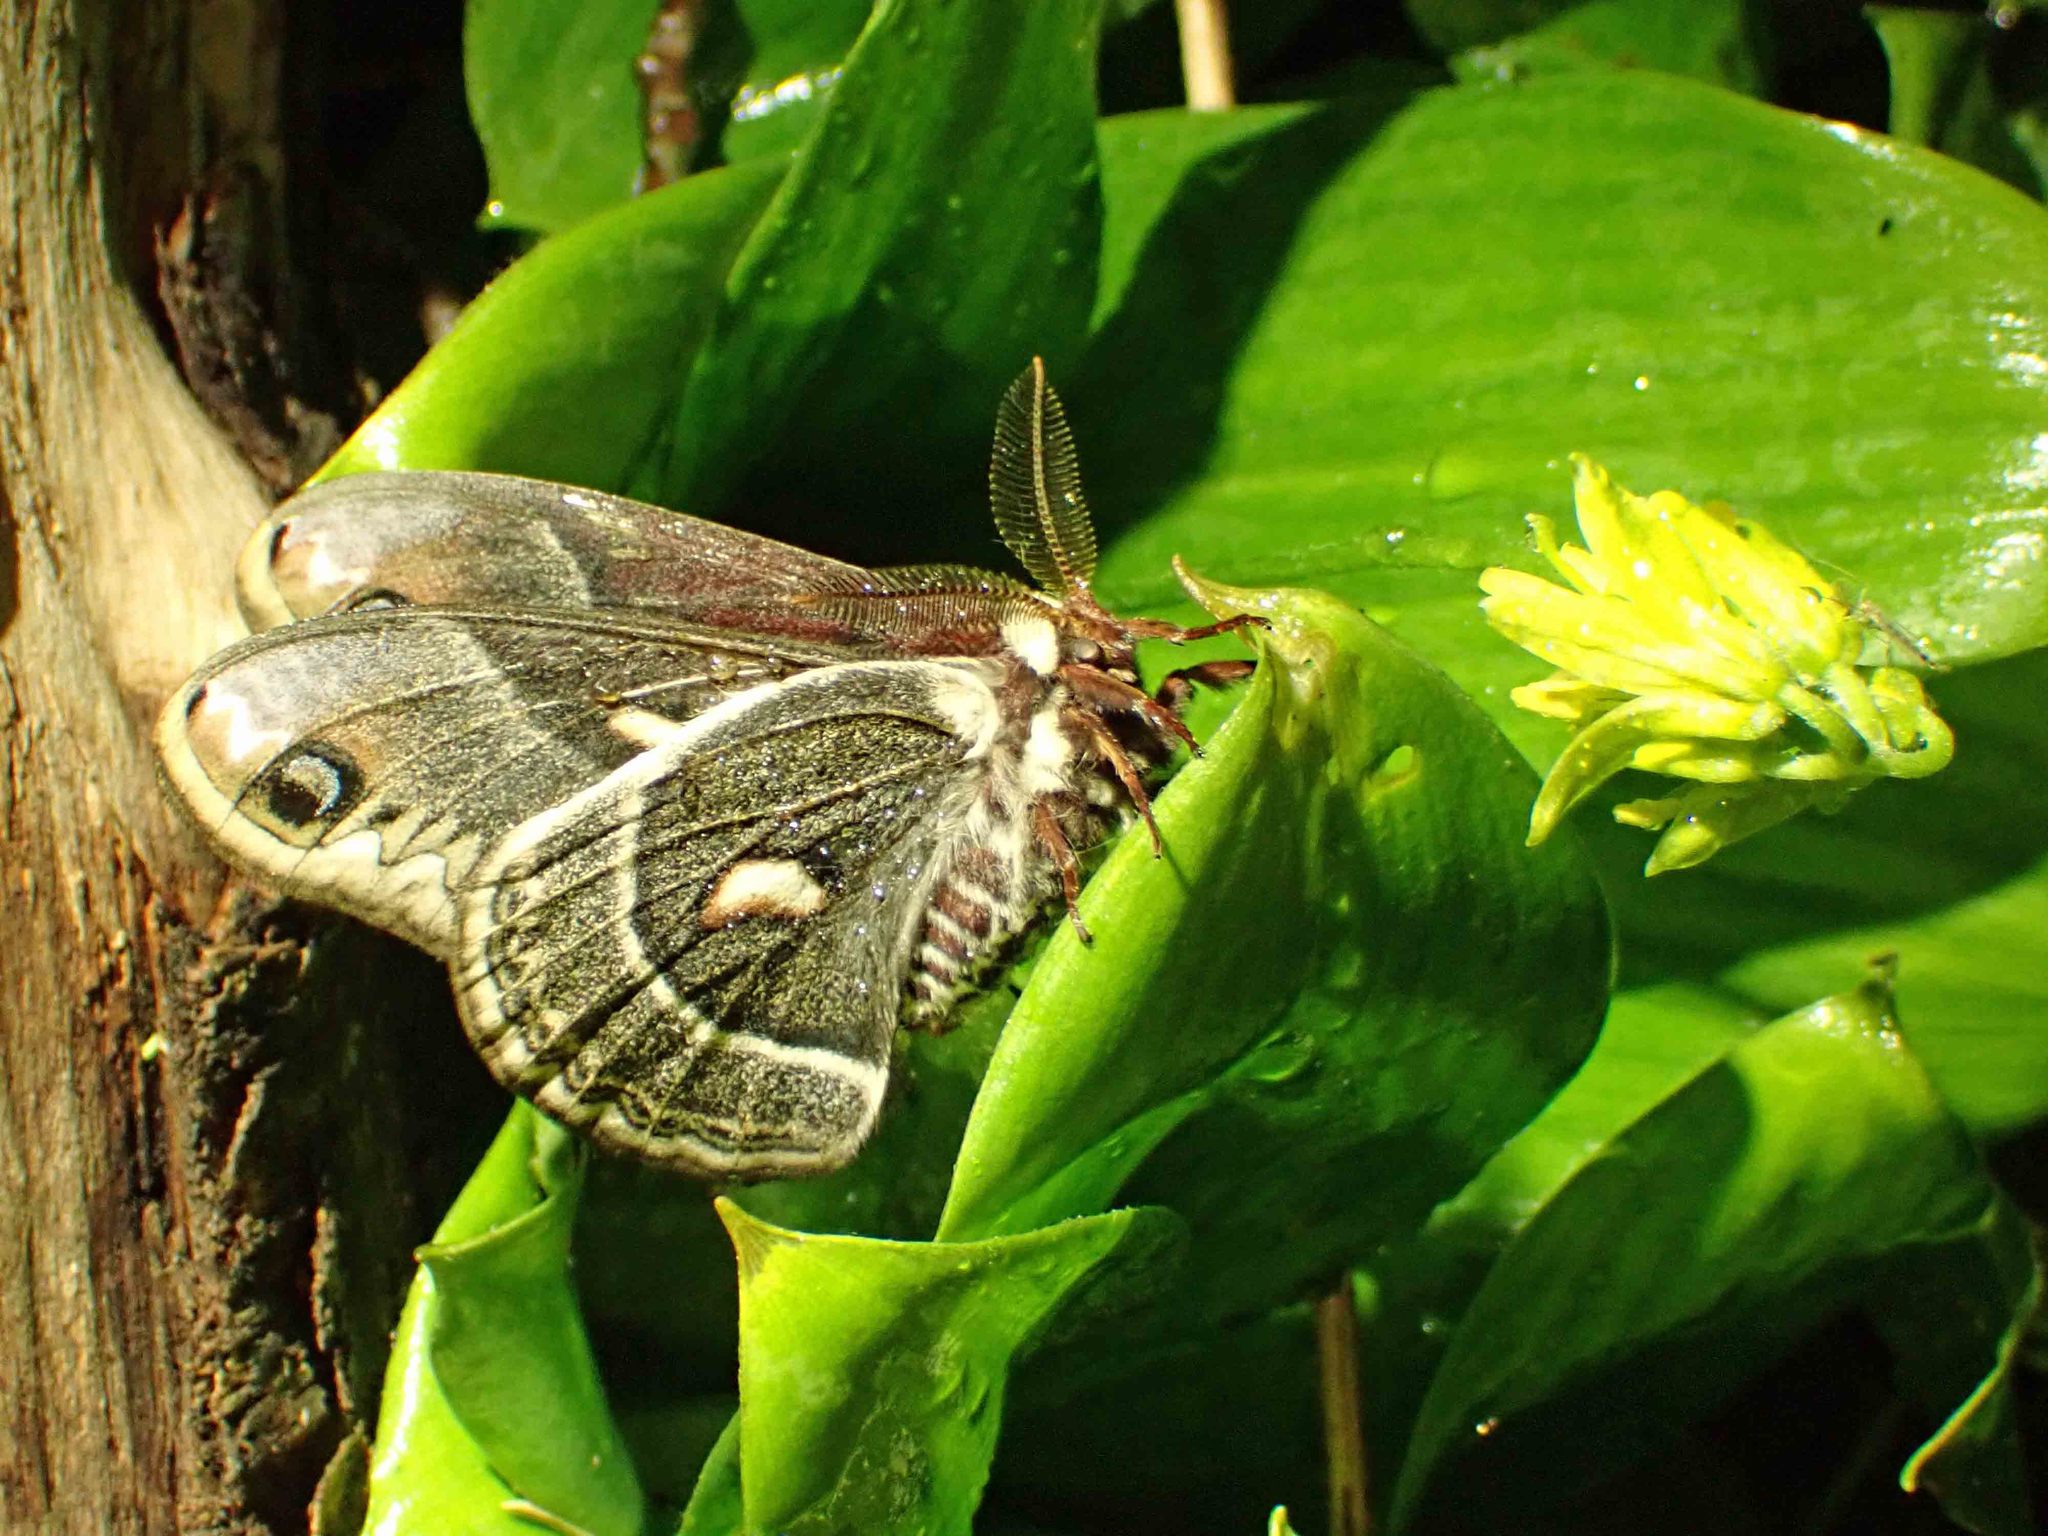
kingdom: Animalia
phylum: Arthropoda
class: Insecta
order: Lepidoptera
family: Saturniidae
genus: Hyalophora
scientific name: Hyalophora columbia
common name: Columbia silkmoth
